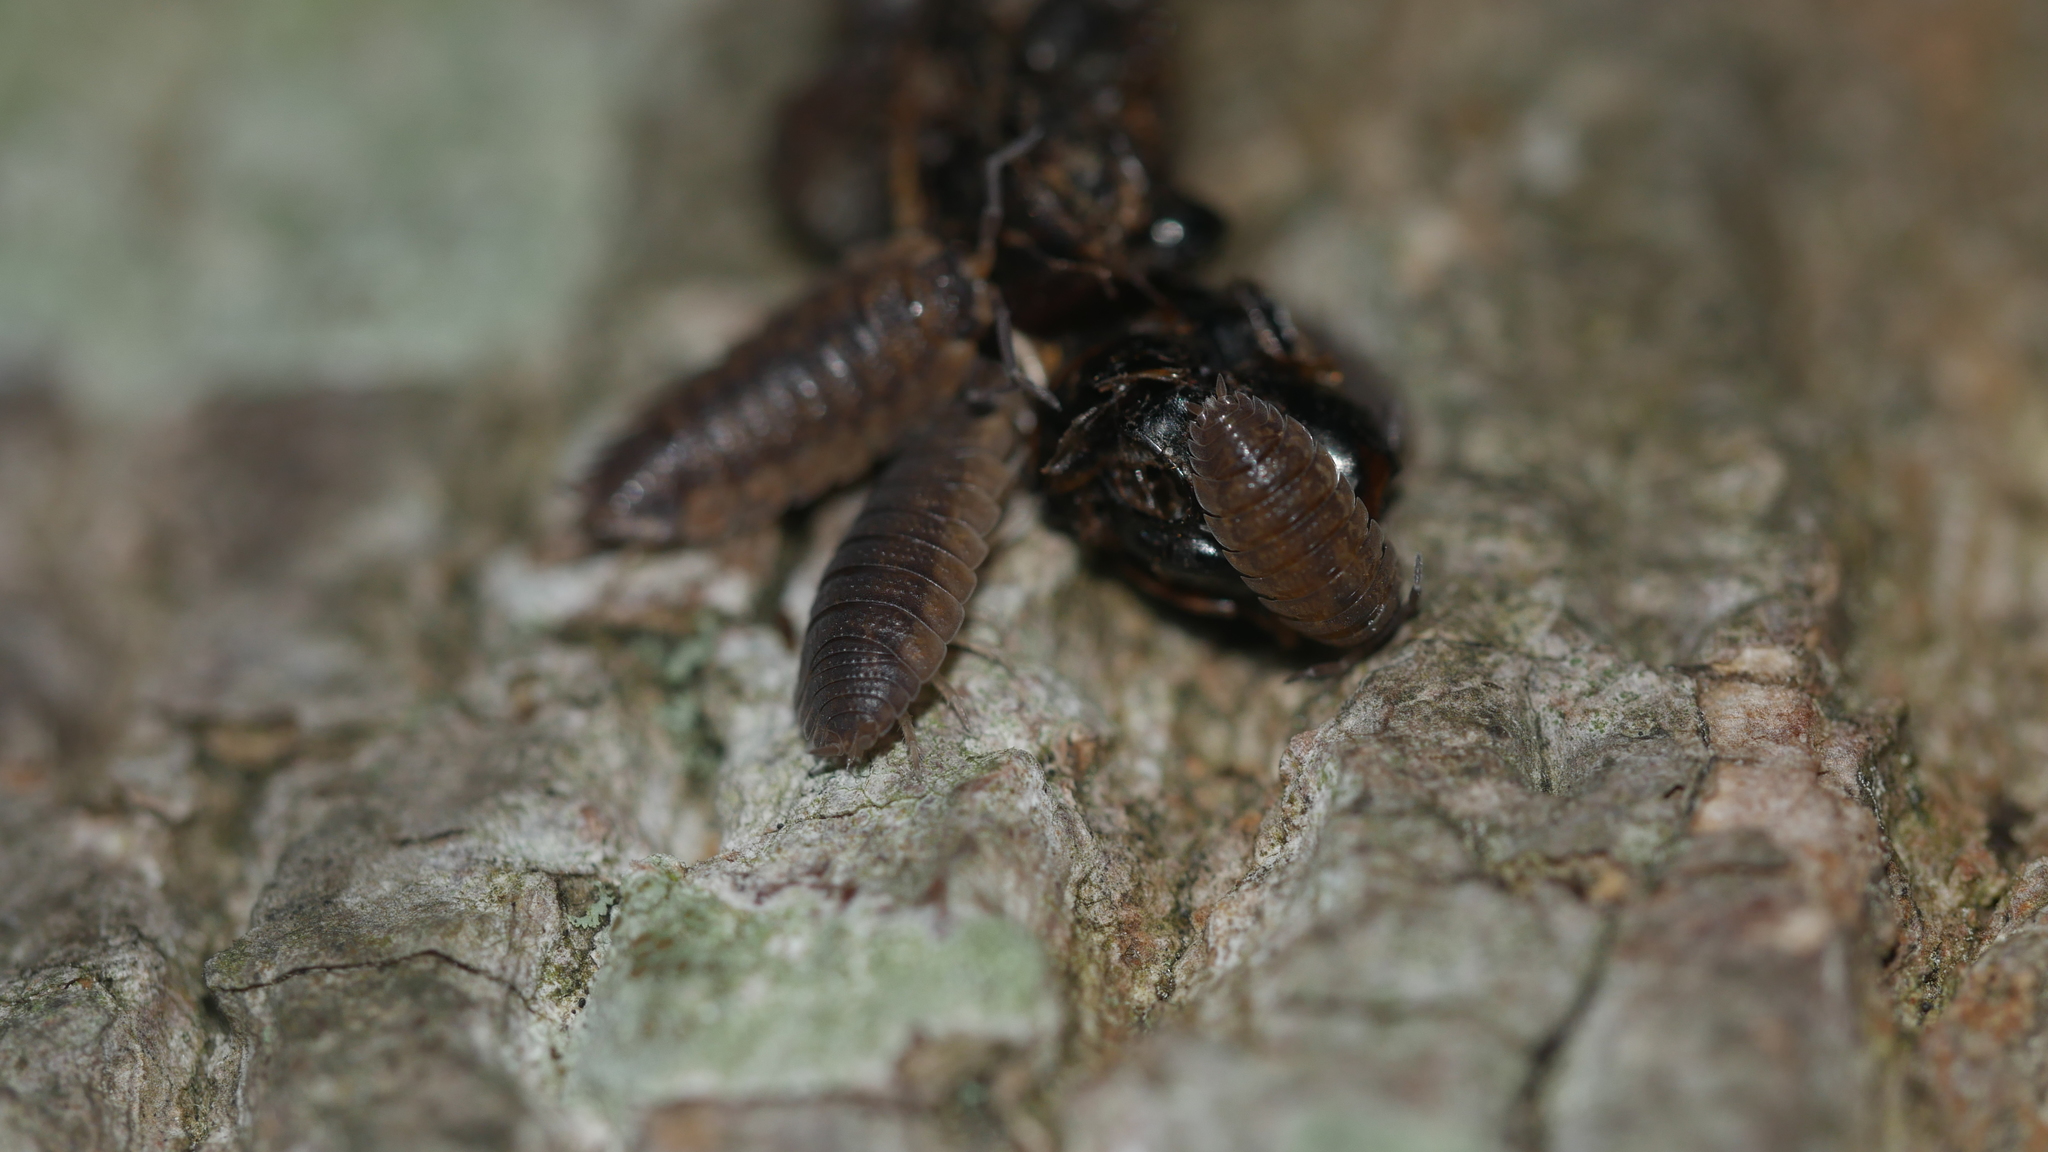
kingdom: Animalia
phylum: Arthropoda
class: Malacostraca
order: Isopoda
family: Porcellionidae
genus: Porcellio
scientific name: Porcellio scaber
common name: Common rough woodlouse
